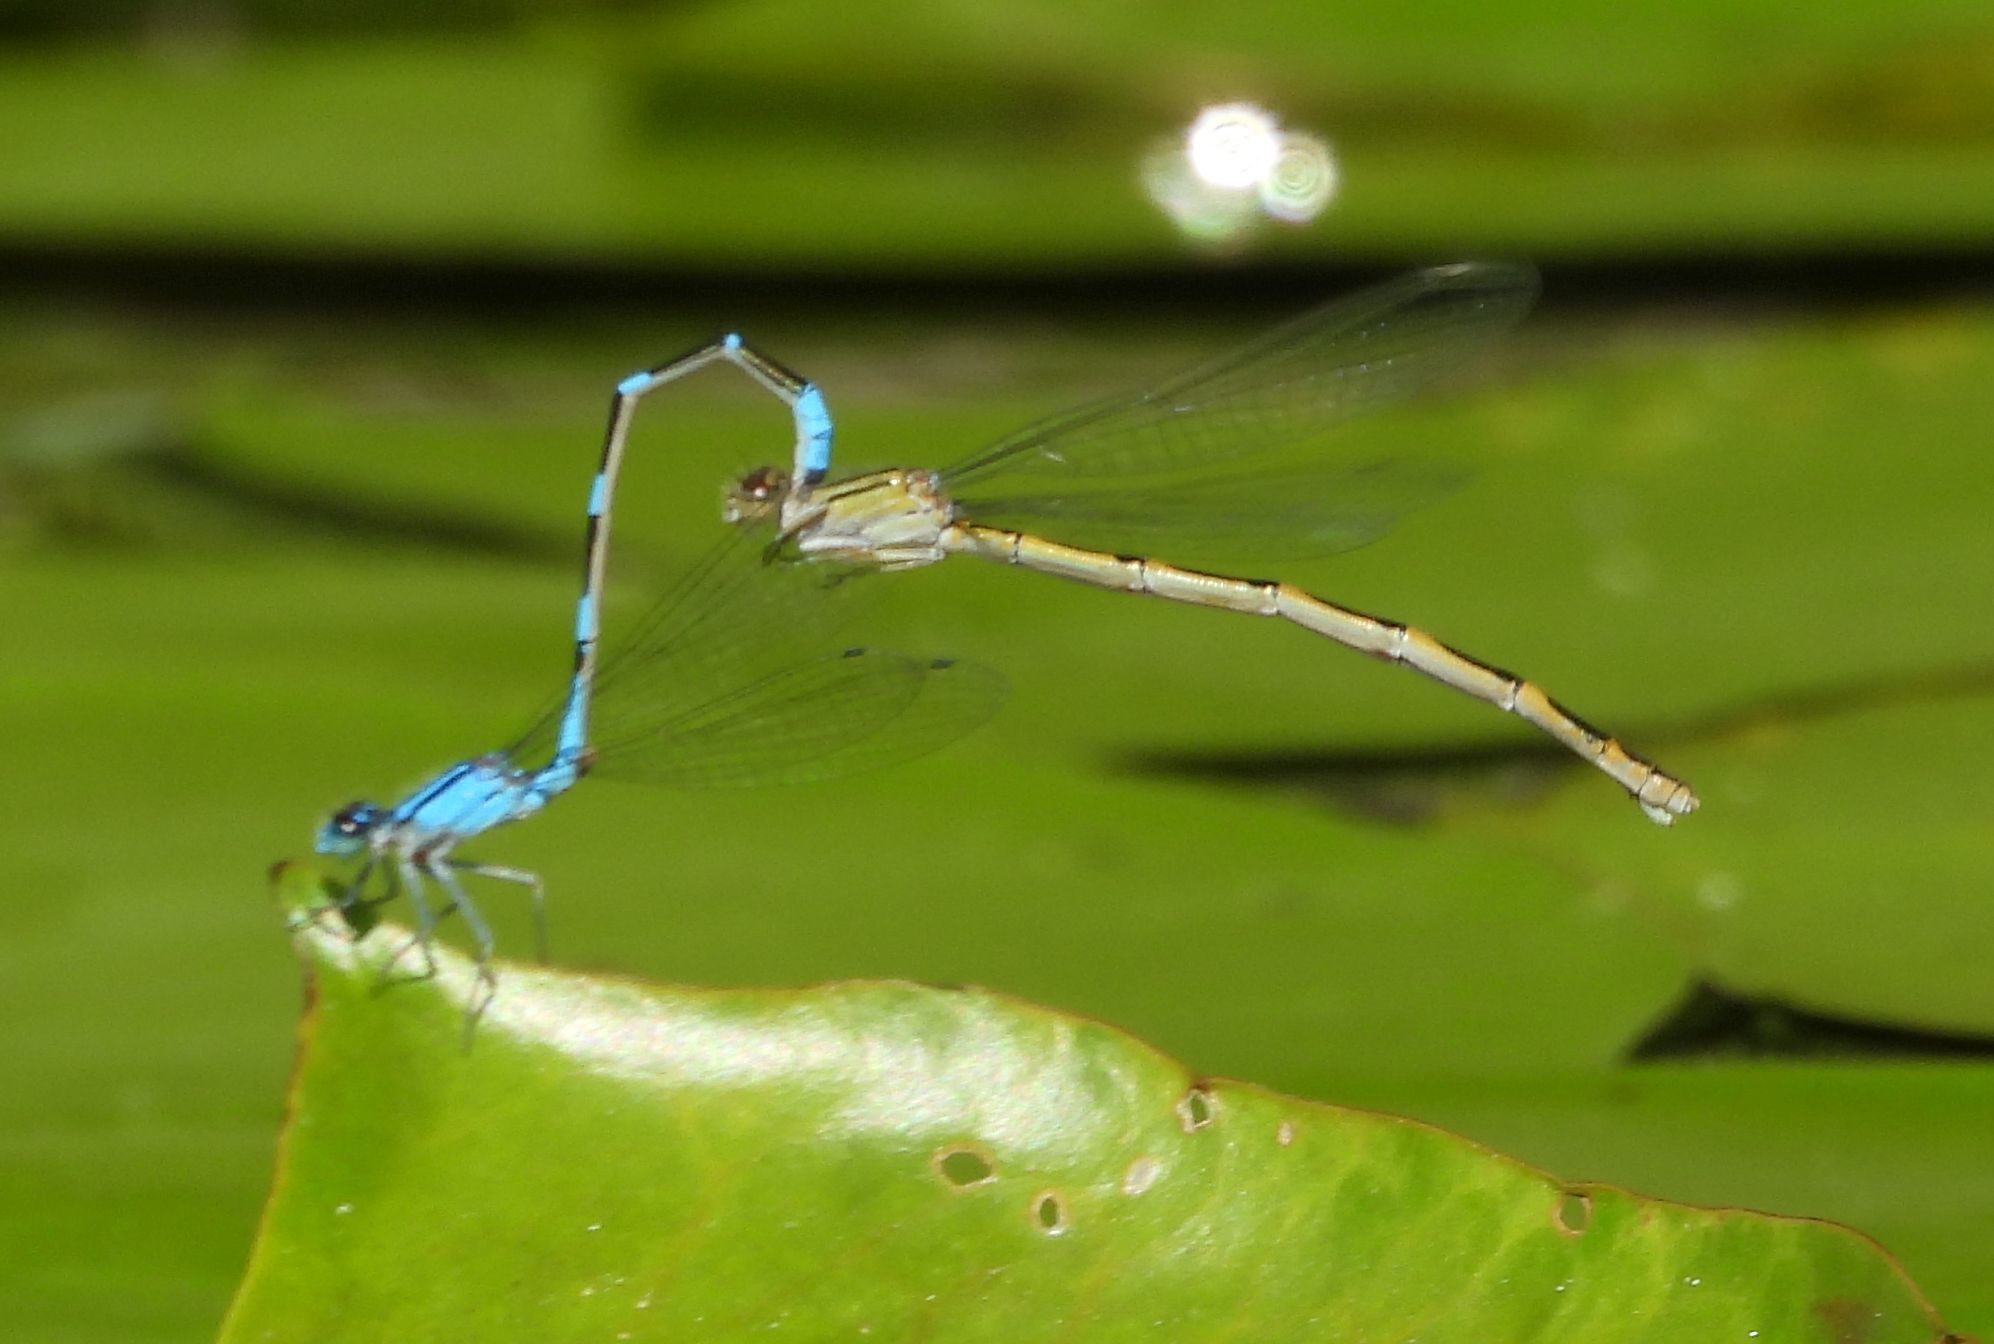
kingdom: Animalia
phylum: Arthropoda
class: Insecta
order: Odonata
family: Coenagrionidae
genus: Enallagma
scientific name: Enallagma carunculatum
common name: Tule bluet
